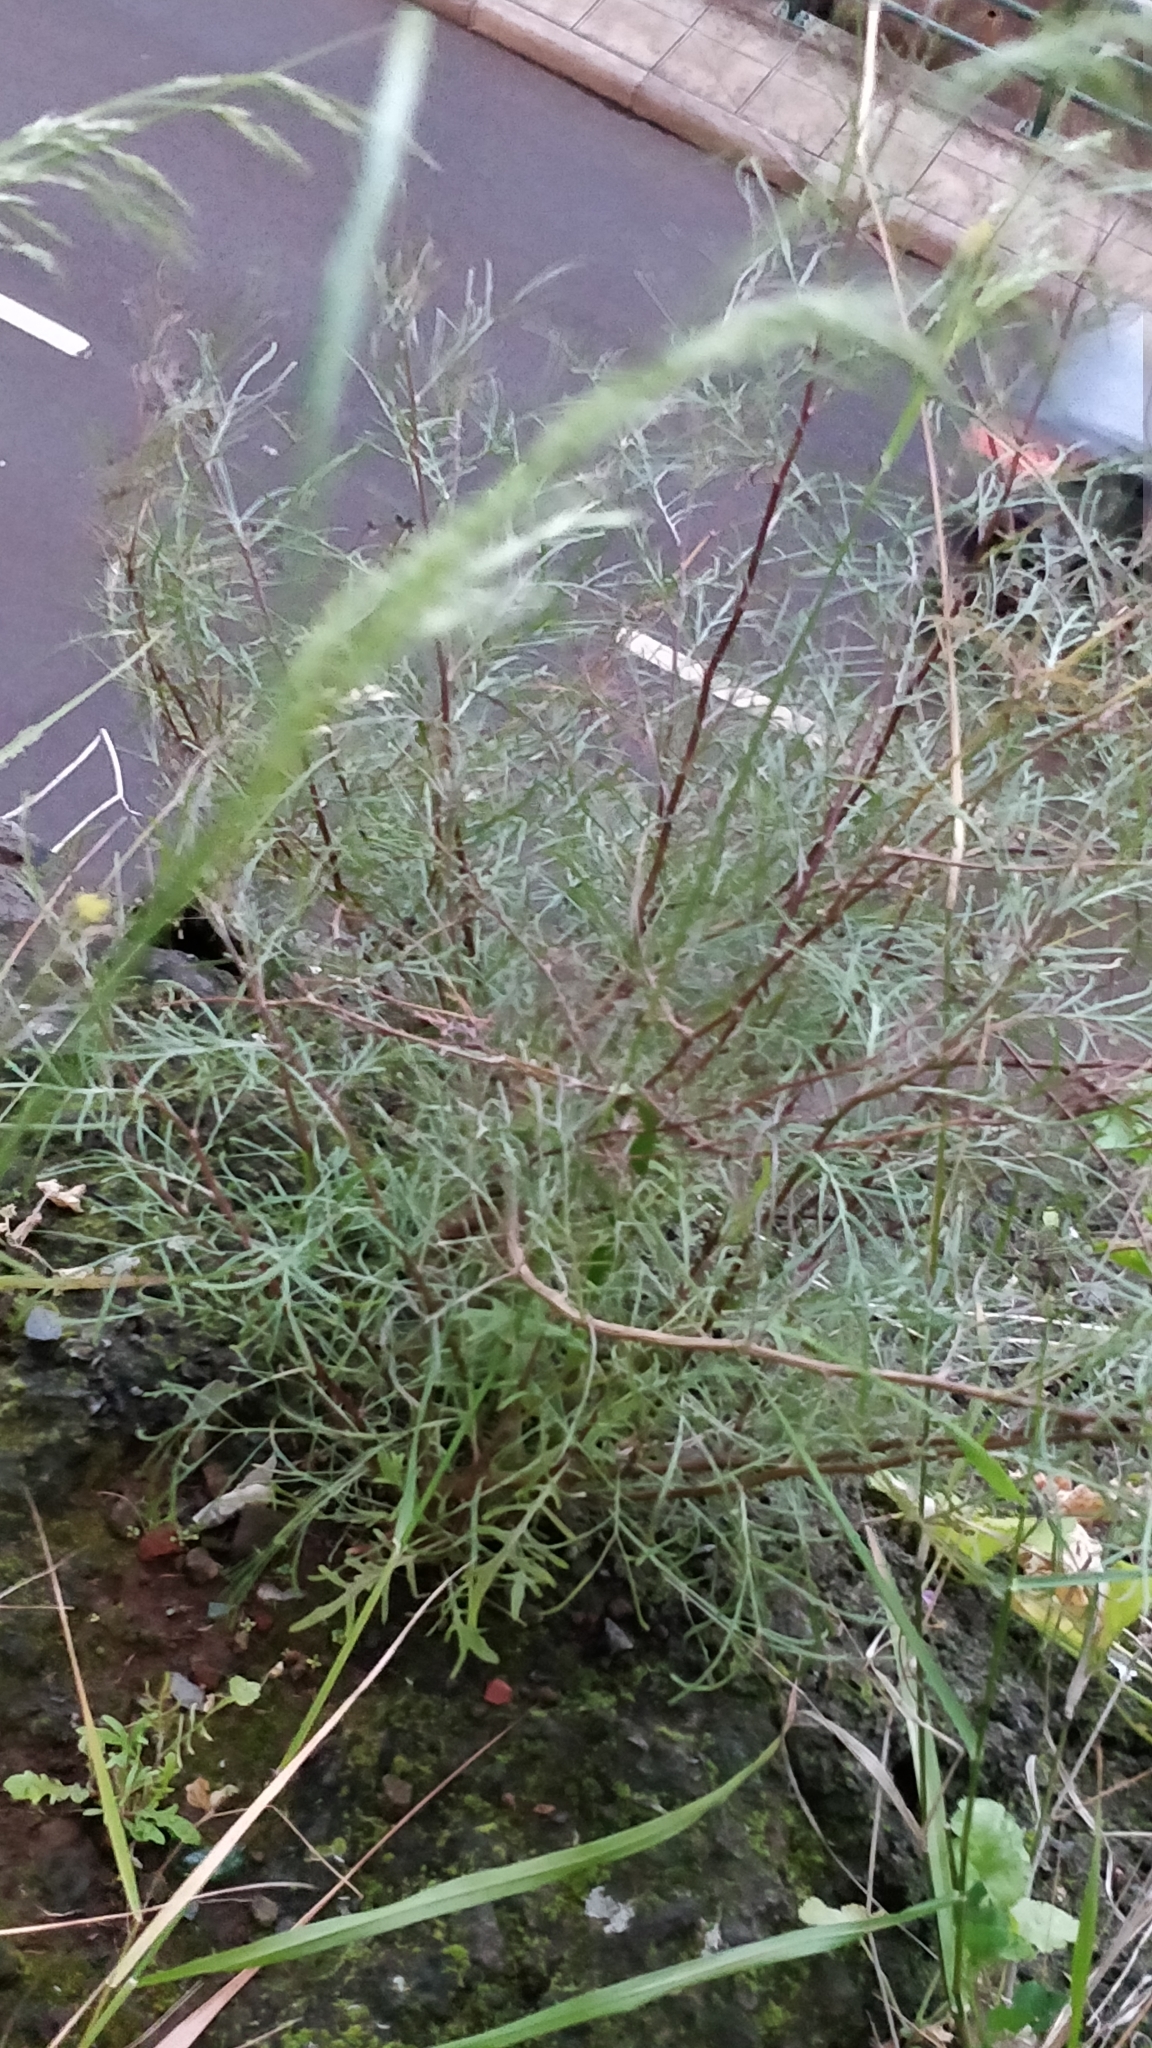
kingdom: Plantae
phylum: Tracheophyta
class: Magnoliopsida
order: Asterales
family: Asteraceae
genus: Tolpis
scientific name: Tolpis succulenta
